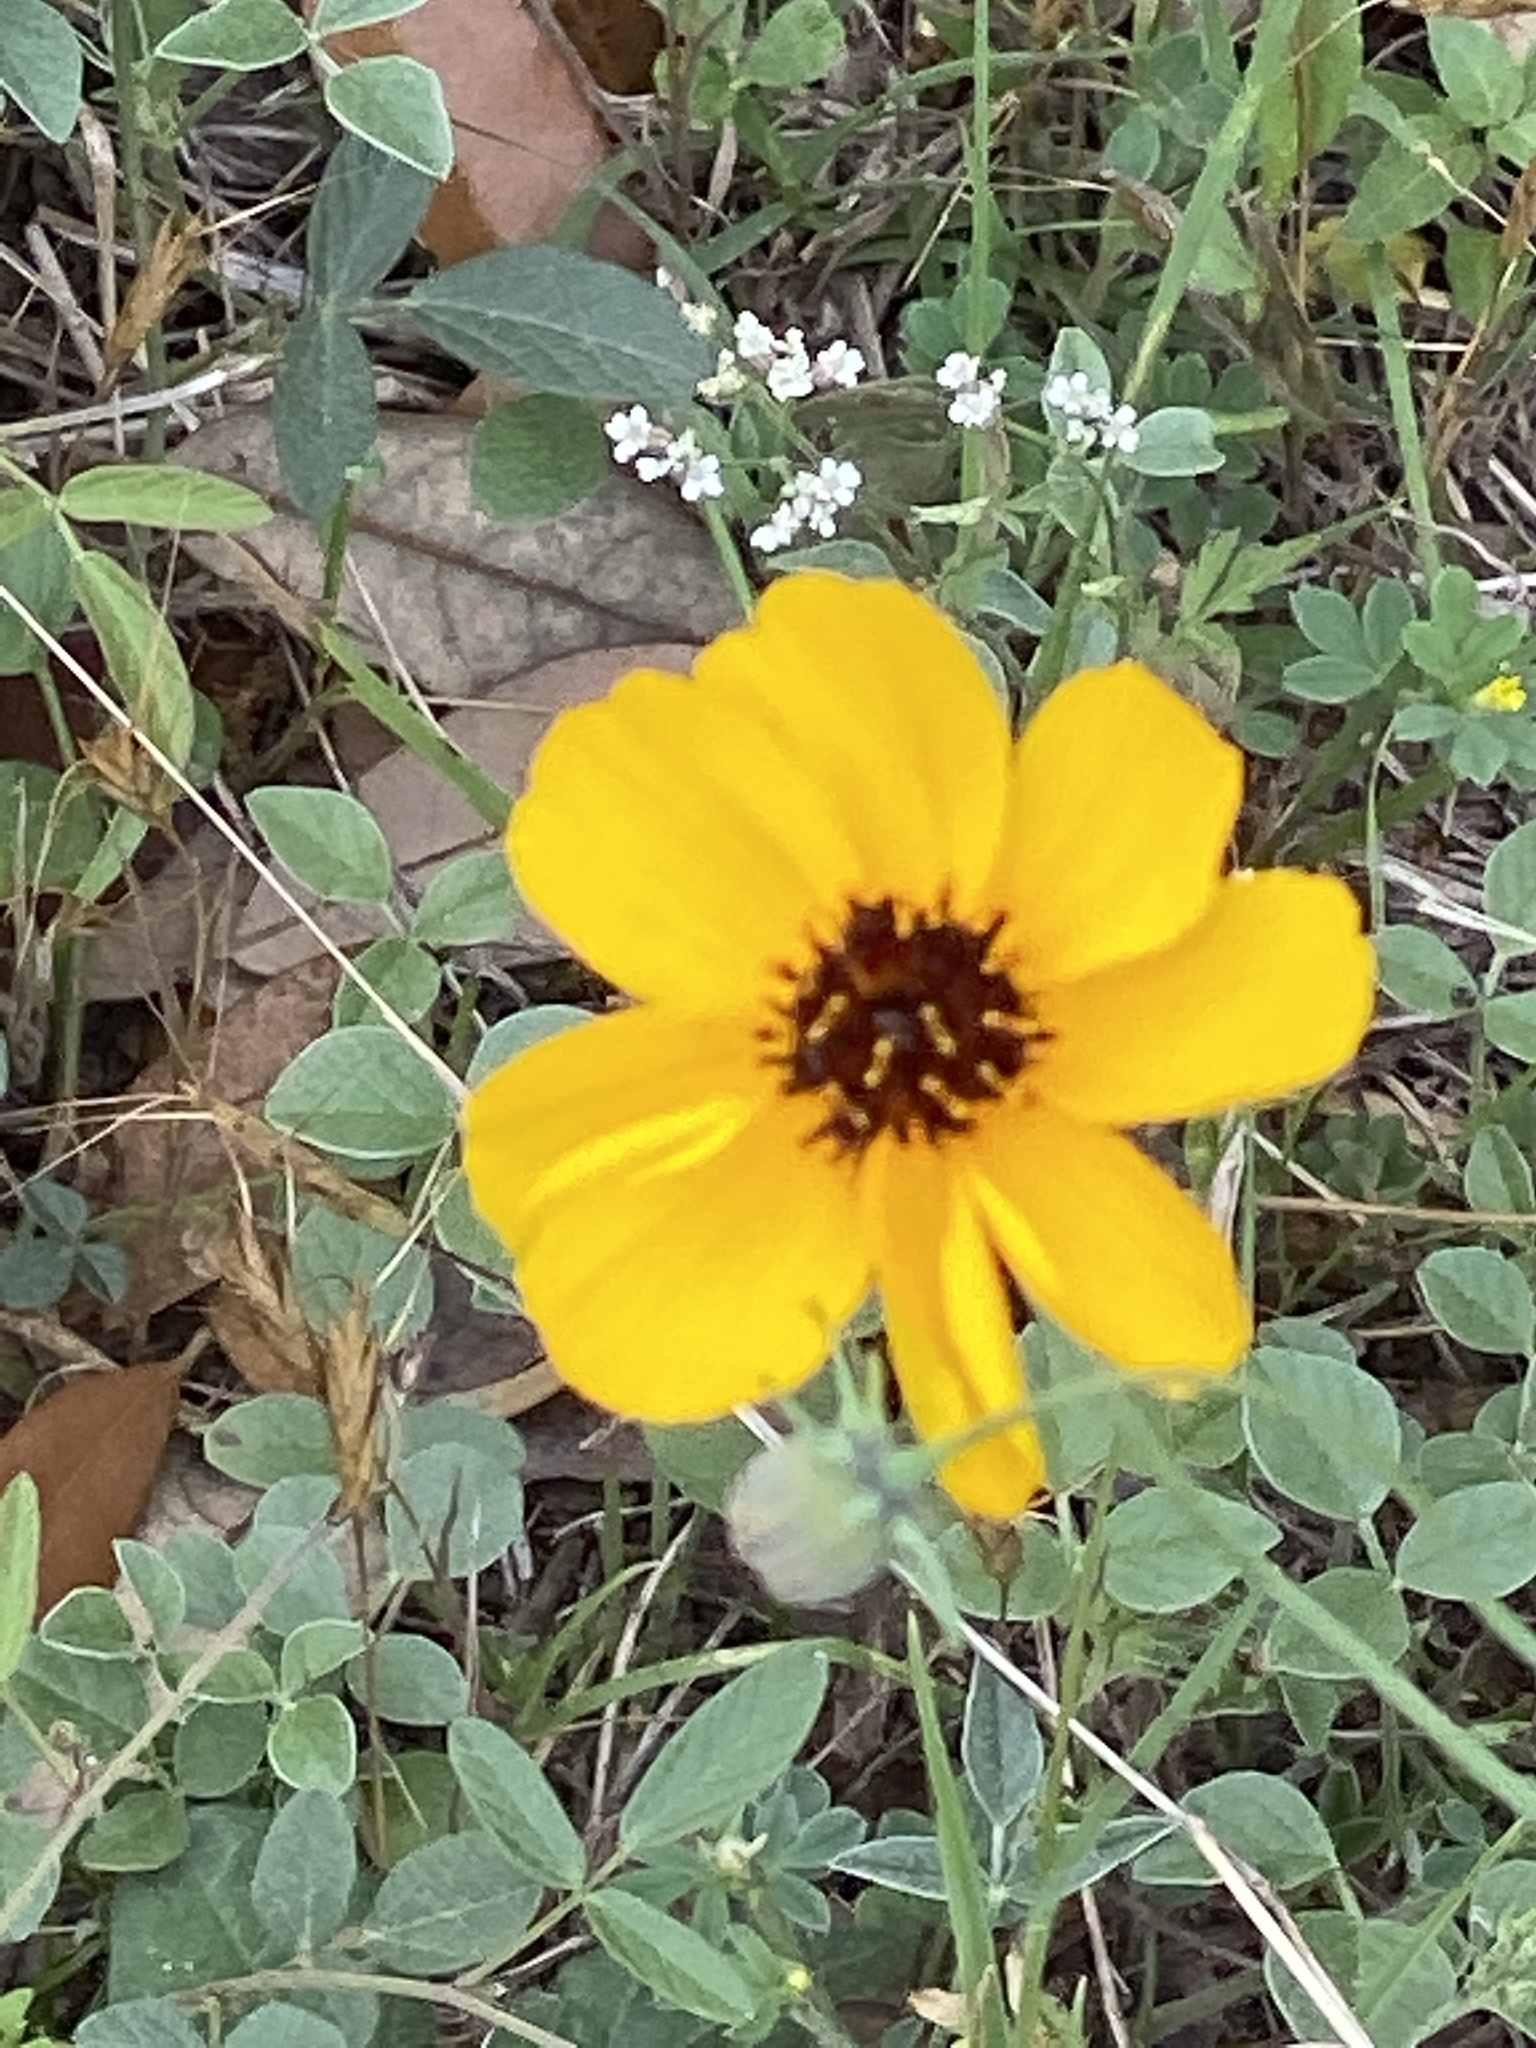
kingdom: Plantae
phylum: Tracheophyta
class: Magnoliopsida
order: Asterales
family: Asteraceae
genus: Thelesperma
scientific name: Thelesperma filifolium
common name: Stiff greenthread
